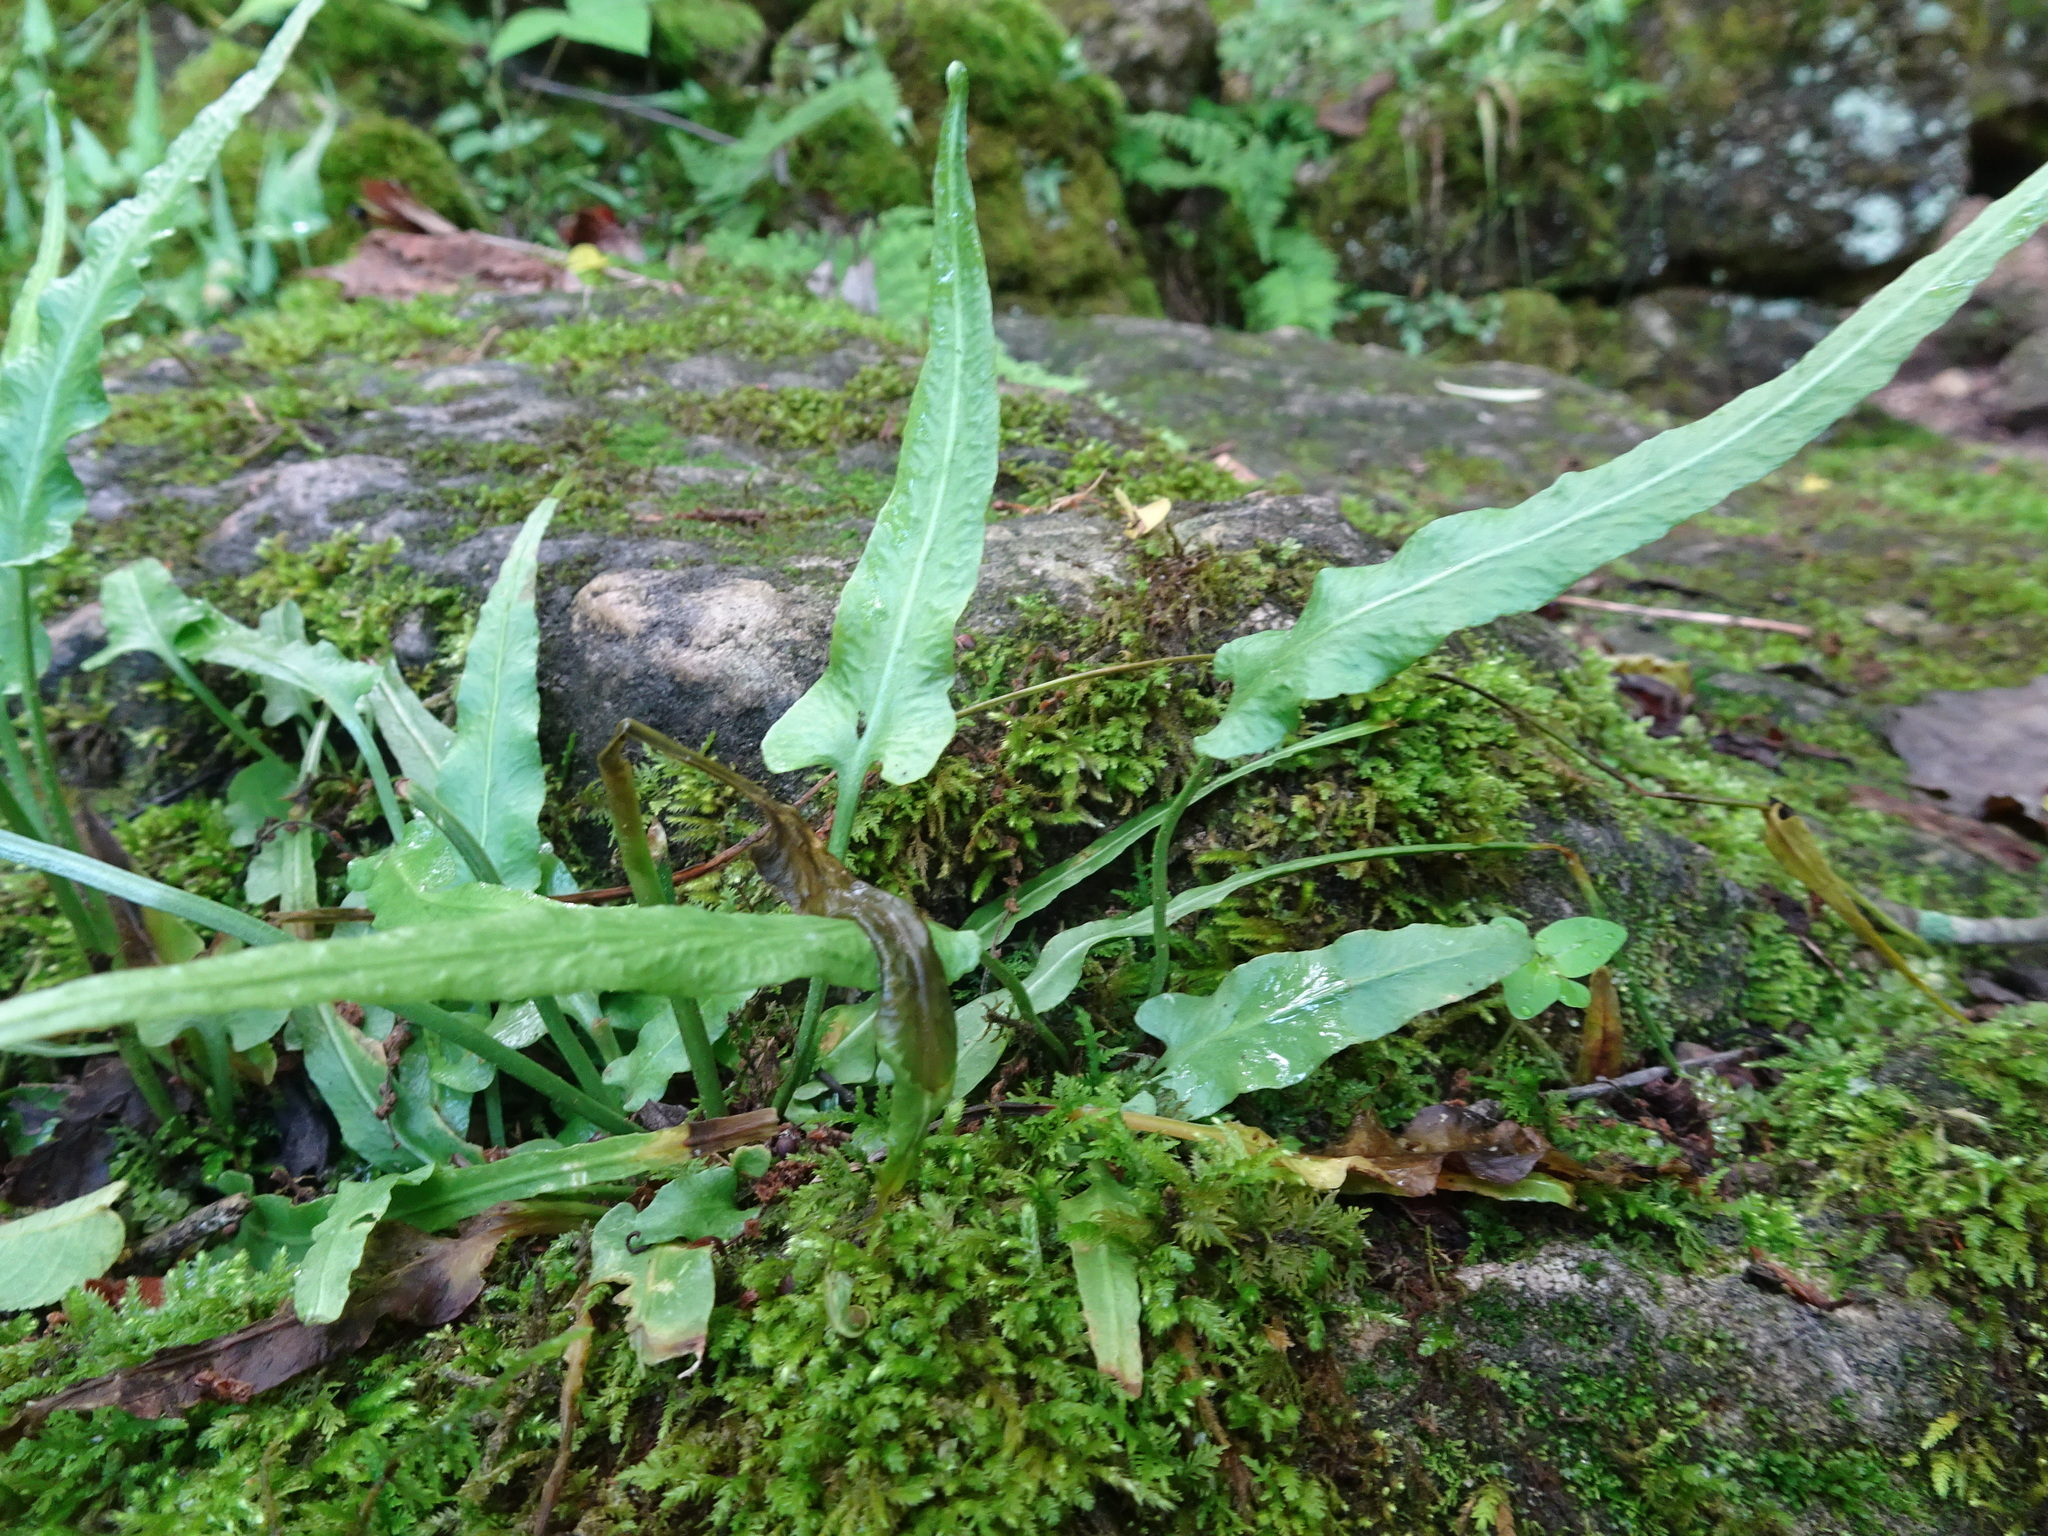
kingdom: Plantae
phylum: Tracheophyta
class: Polypodiopsida
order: Polypodiales
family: Aspleniaceae
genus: Asplenium
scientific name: Asplenium rhizophyllum
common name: Walking fern
